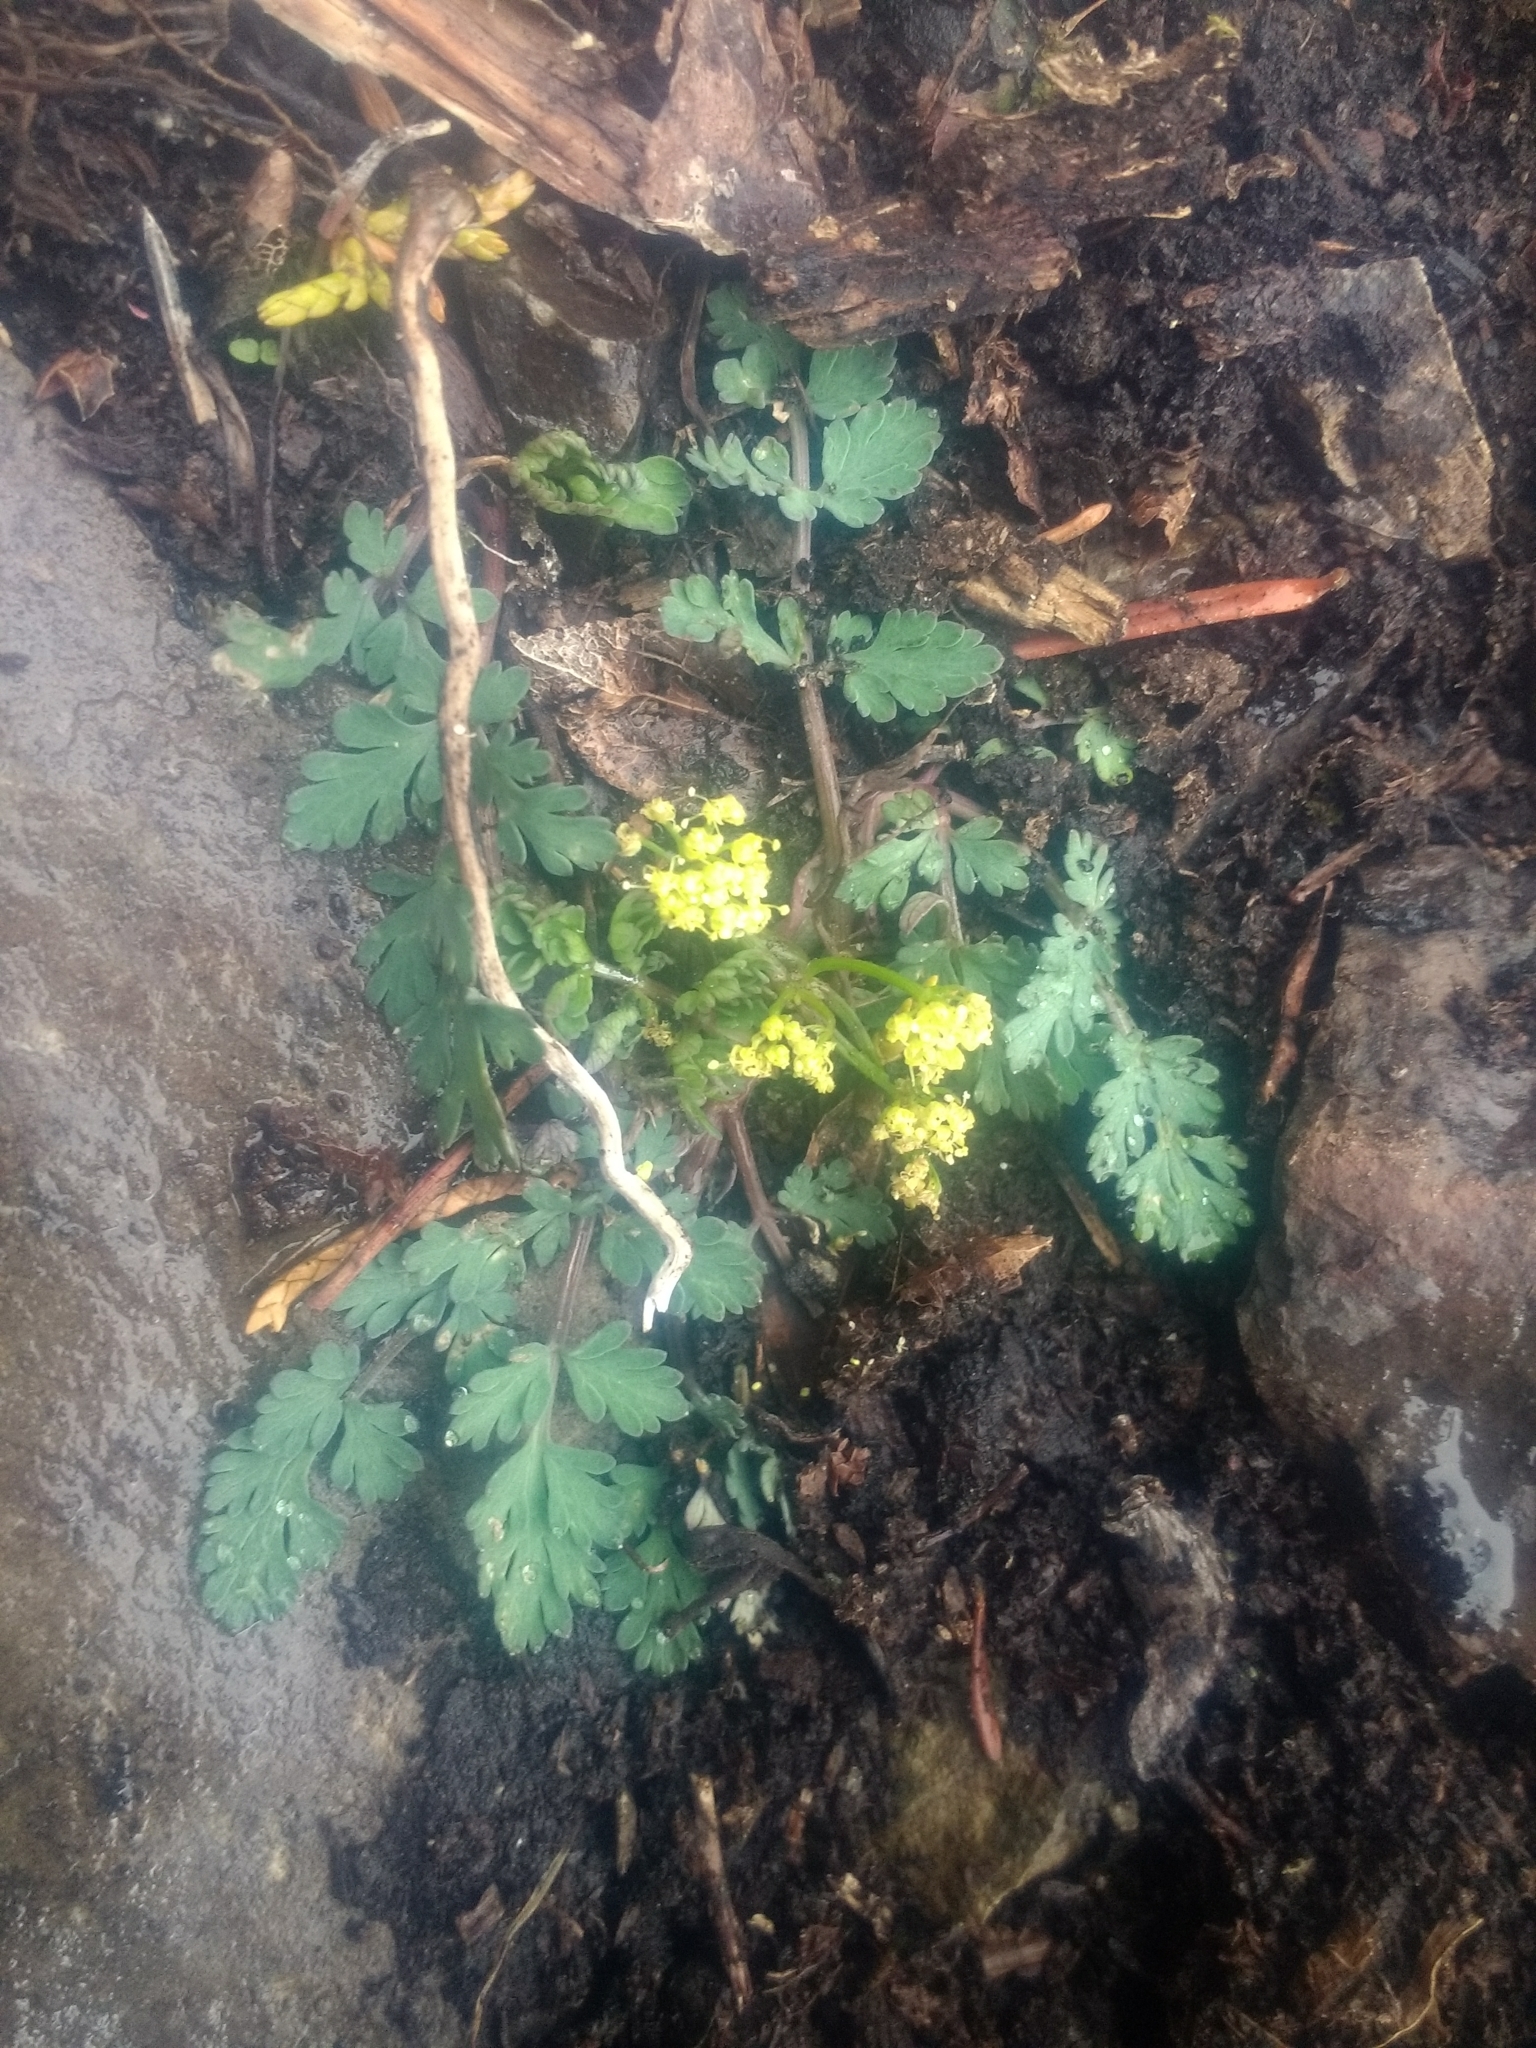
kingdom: Plantae
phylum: Tracheophyta
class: Magnoliopsida
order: Apiales
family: Apiaceae
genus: Lomatium
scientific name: Lomatium martindalei
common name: Cascade desert-parsley
